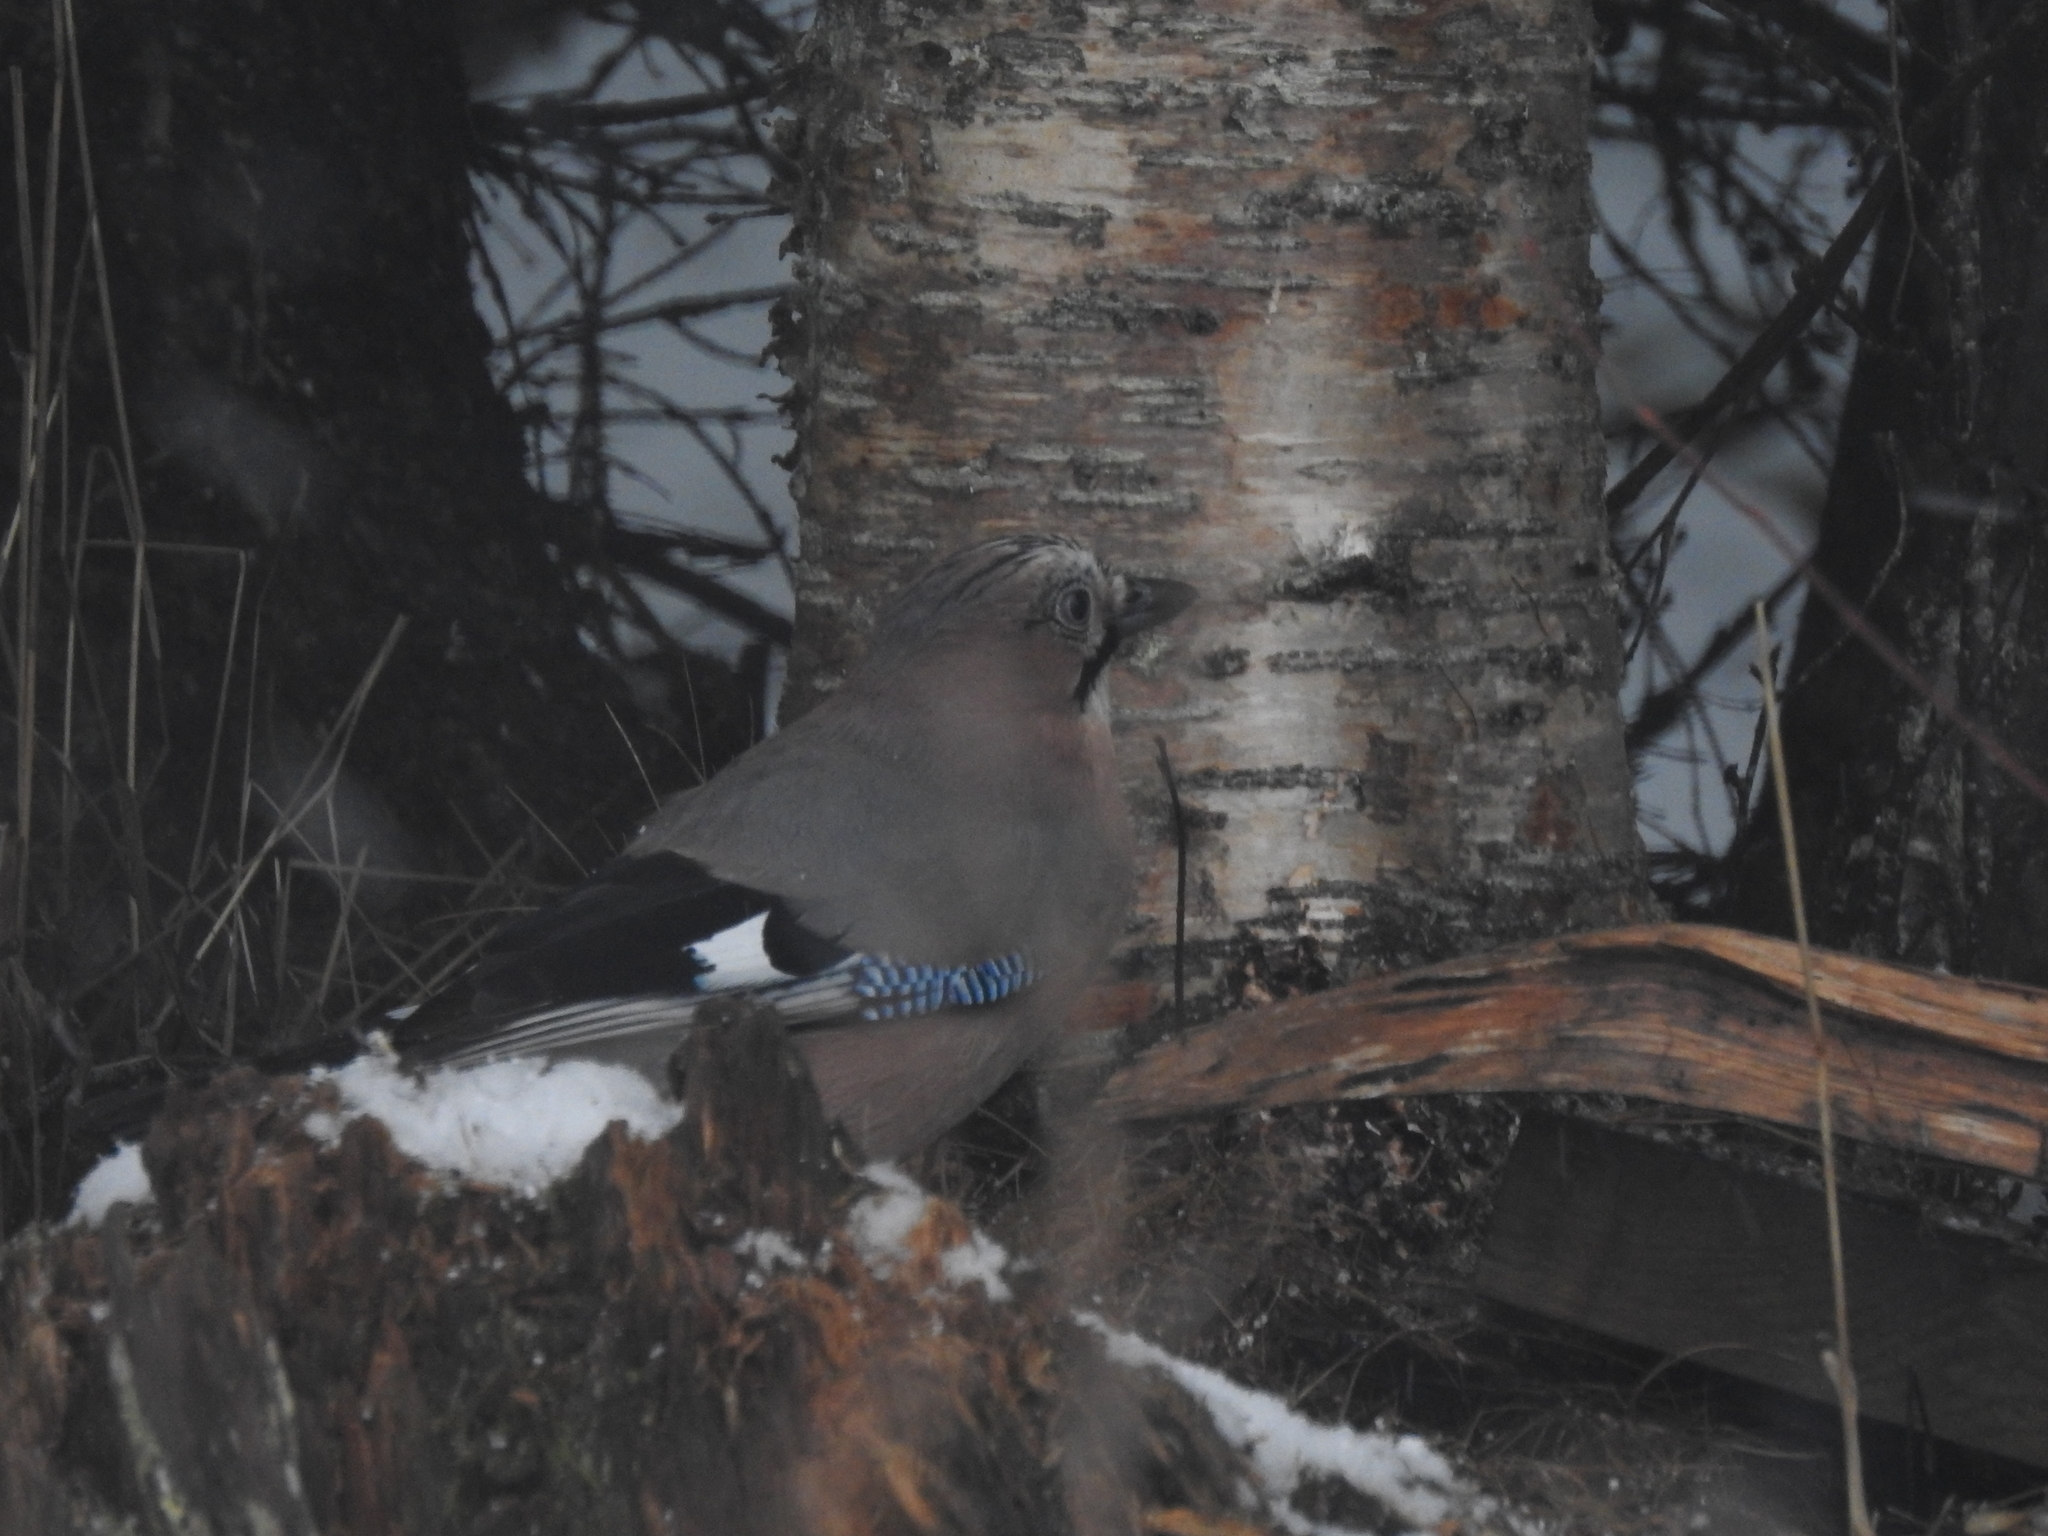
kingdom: Animalia
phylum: Chordata
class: Aves
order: Passeriformes
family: Corvidae
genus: Garrulus
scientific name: Garrulus glandarius
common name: Eurasian jay
